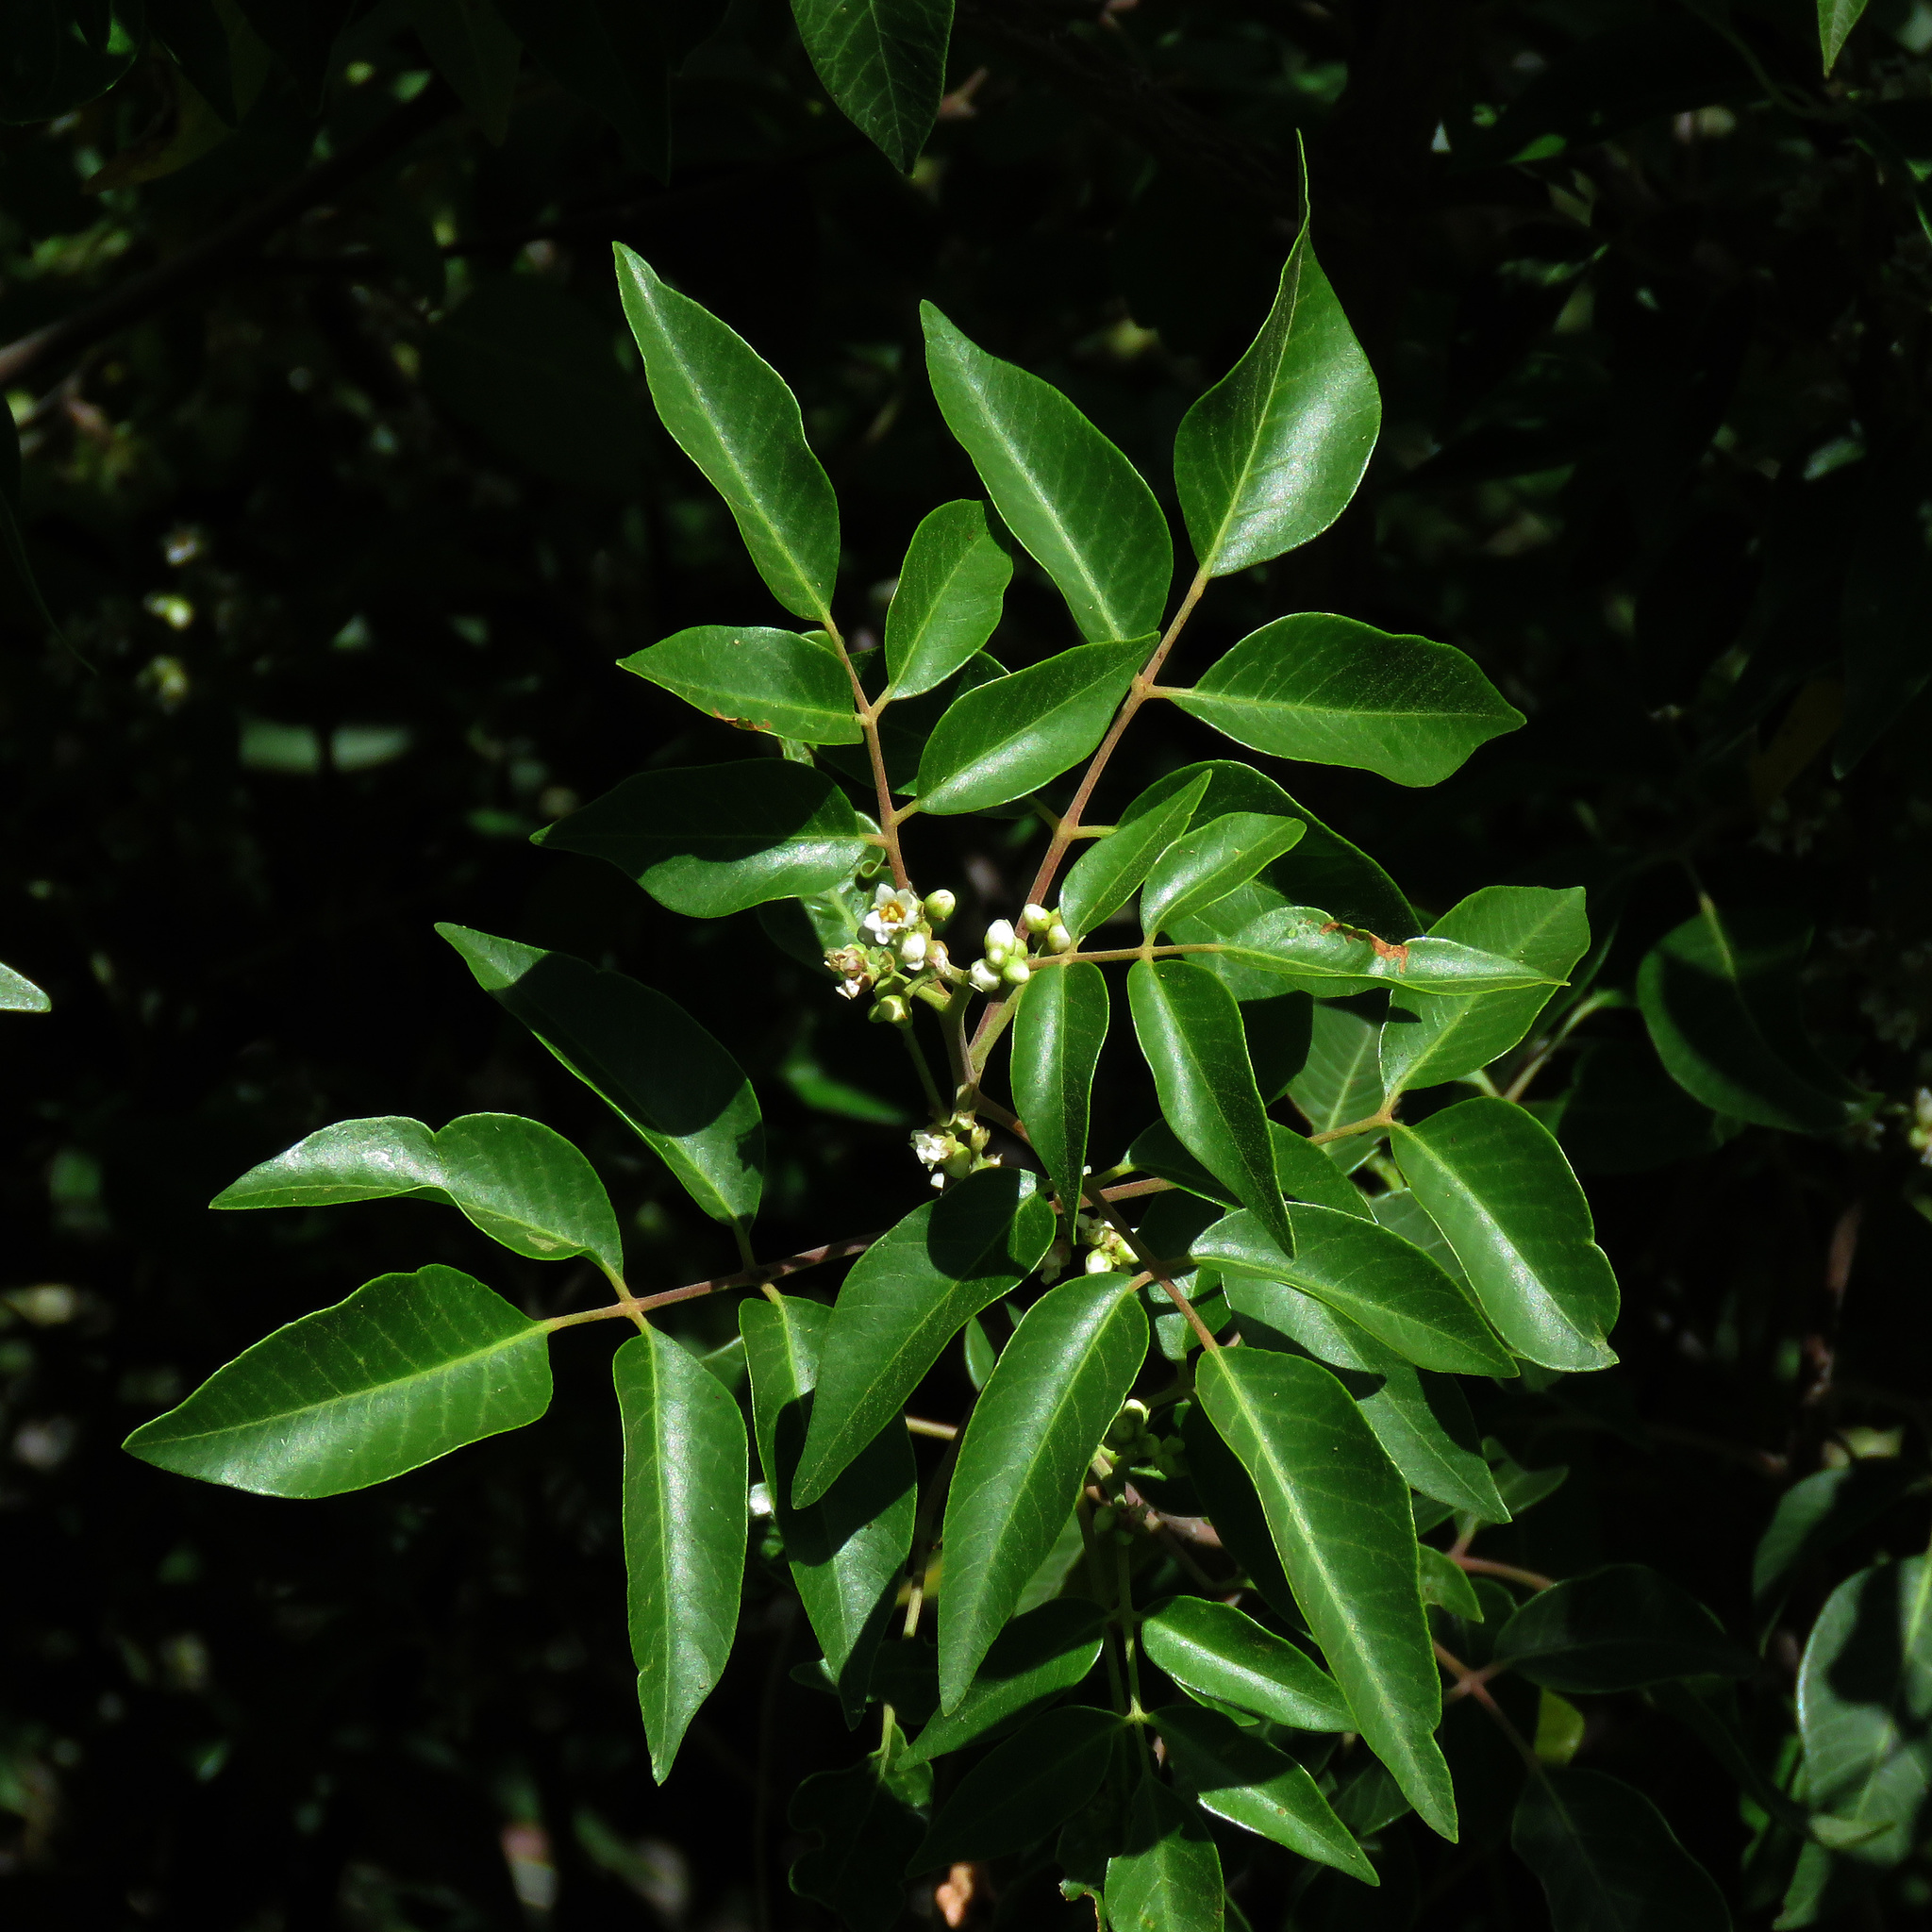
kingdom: Plantae
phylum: Tracheophyta
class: Magnoliopsida
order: Sapindales
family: Anacardiaceae
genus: Rhus
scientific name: Rhus virens
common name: Evergreen sumac
